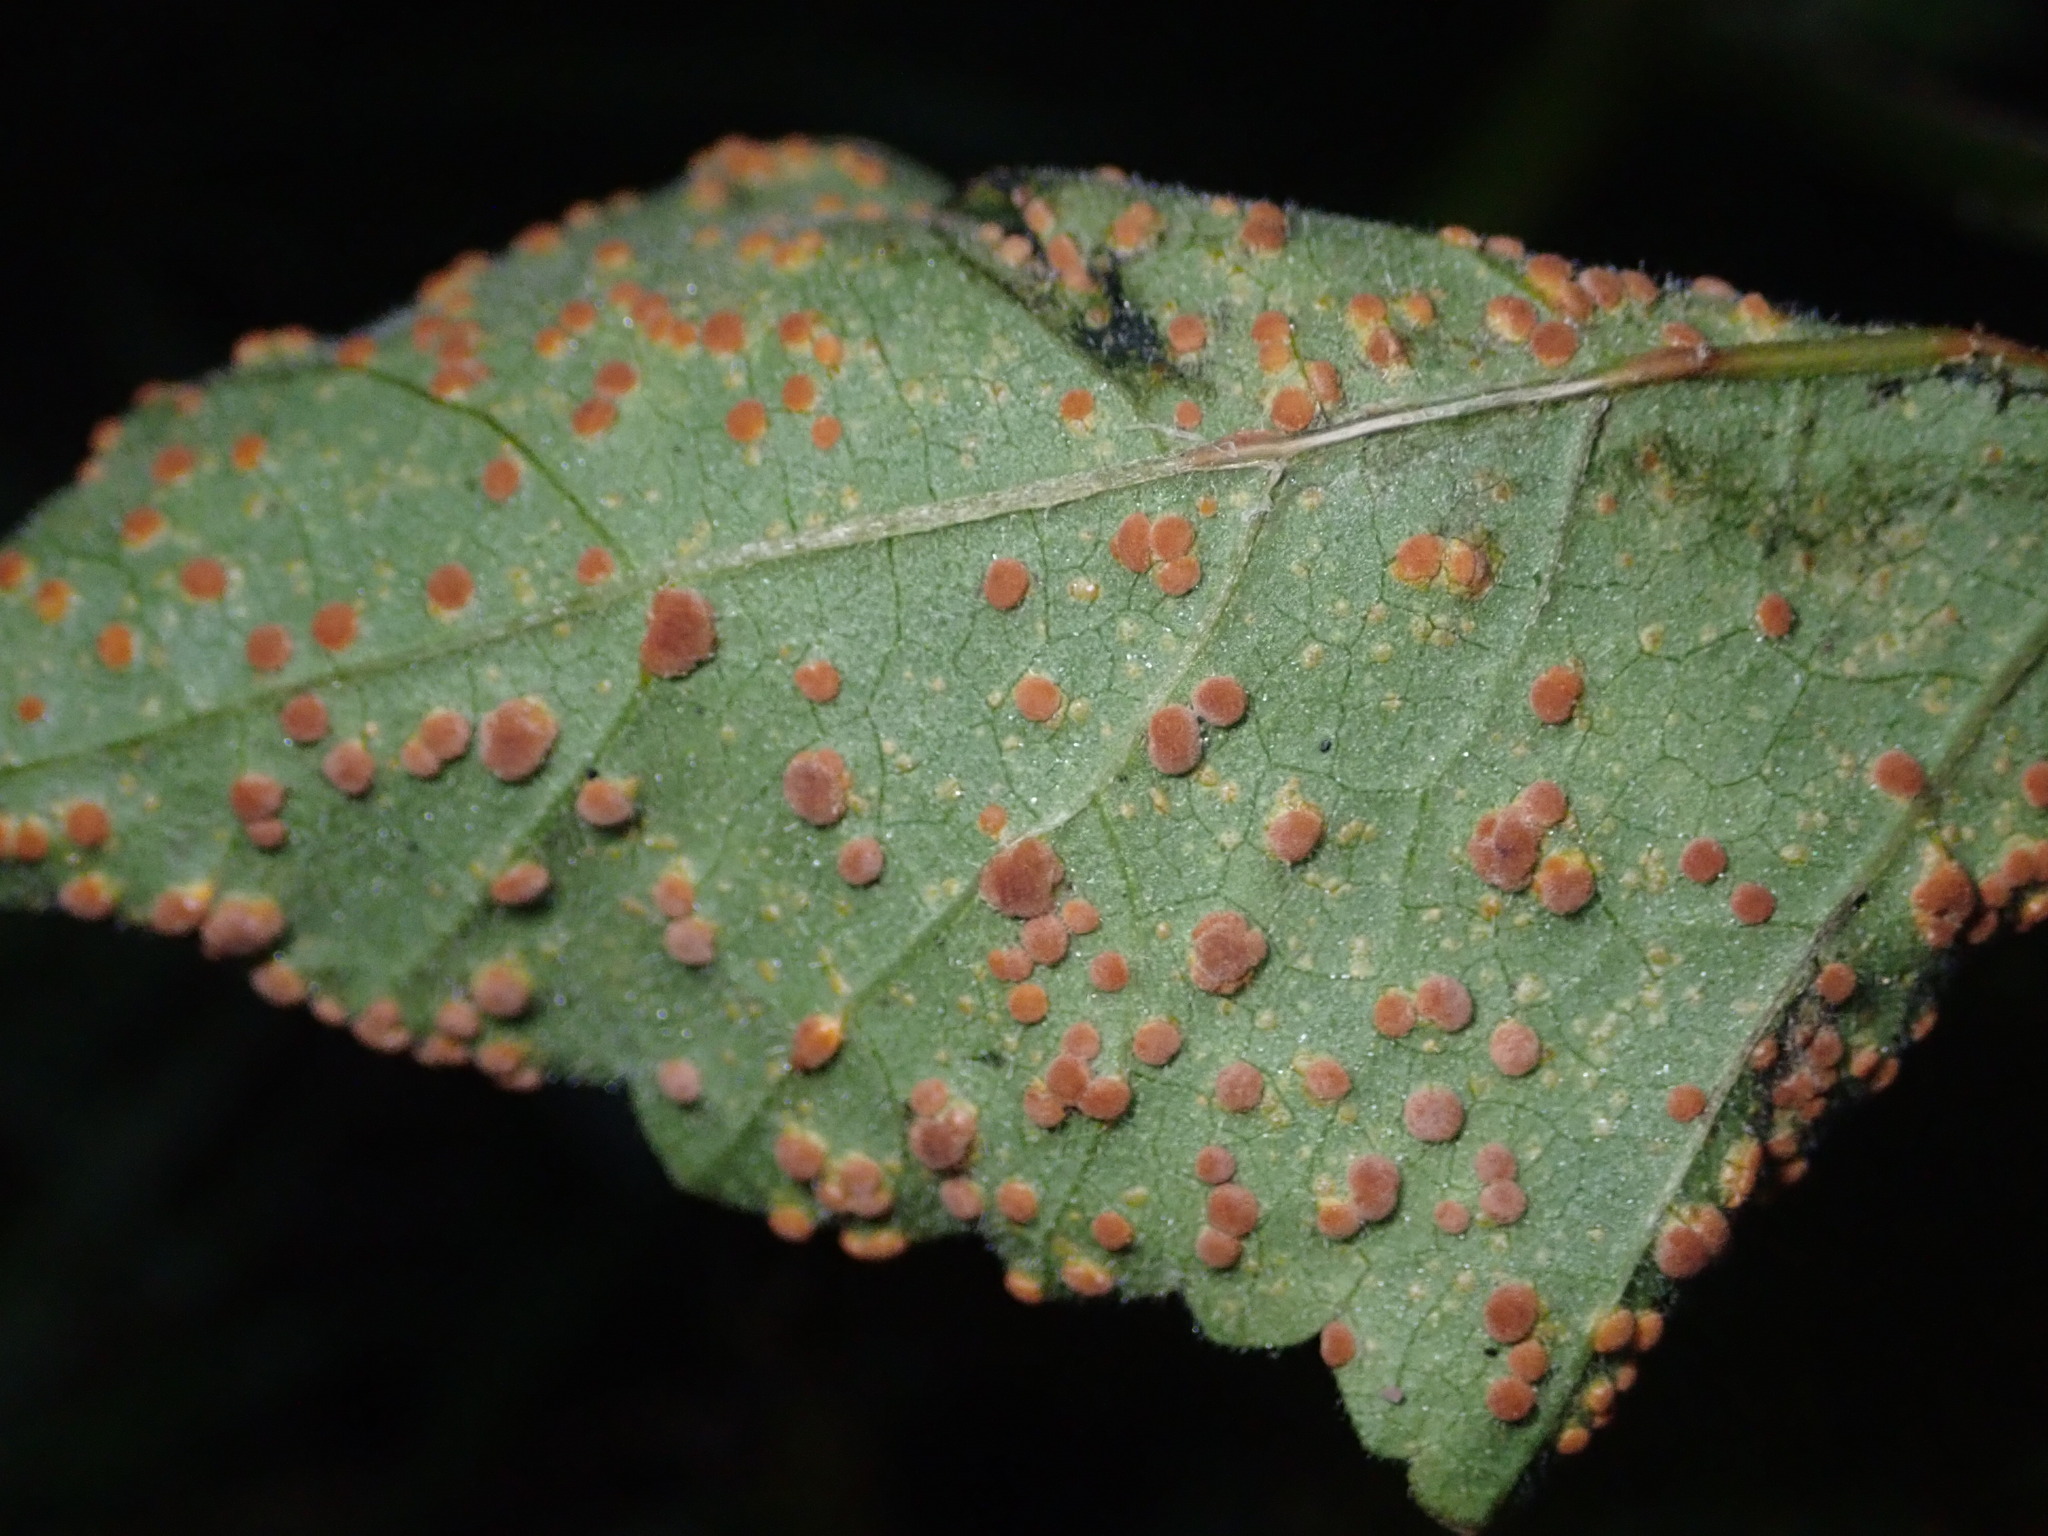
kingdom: Fungi
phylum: Basidiomycota
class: Pucciniomycetes
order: Pucciniales
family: Pucciniaceae
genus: Puccinia
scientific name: Puccinia malvacearum
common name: Hollyhock rust
